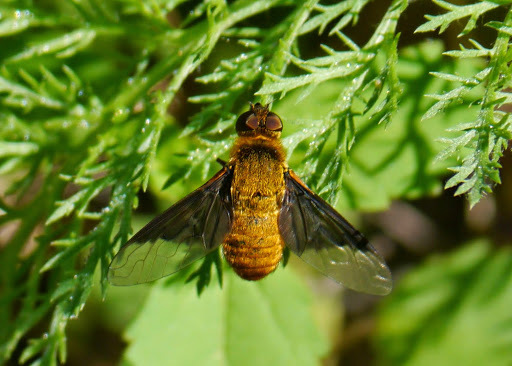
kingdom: Animalia
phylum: Arthropoda
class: Insecta
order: Diptera
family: Bombyliidae
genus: Chrysanthrax
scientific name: Chrysanthrax cypris
